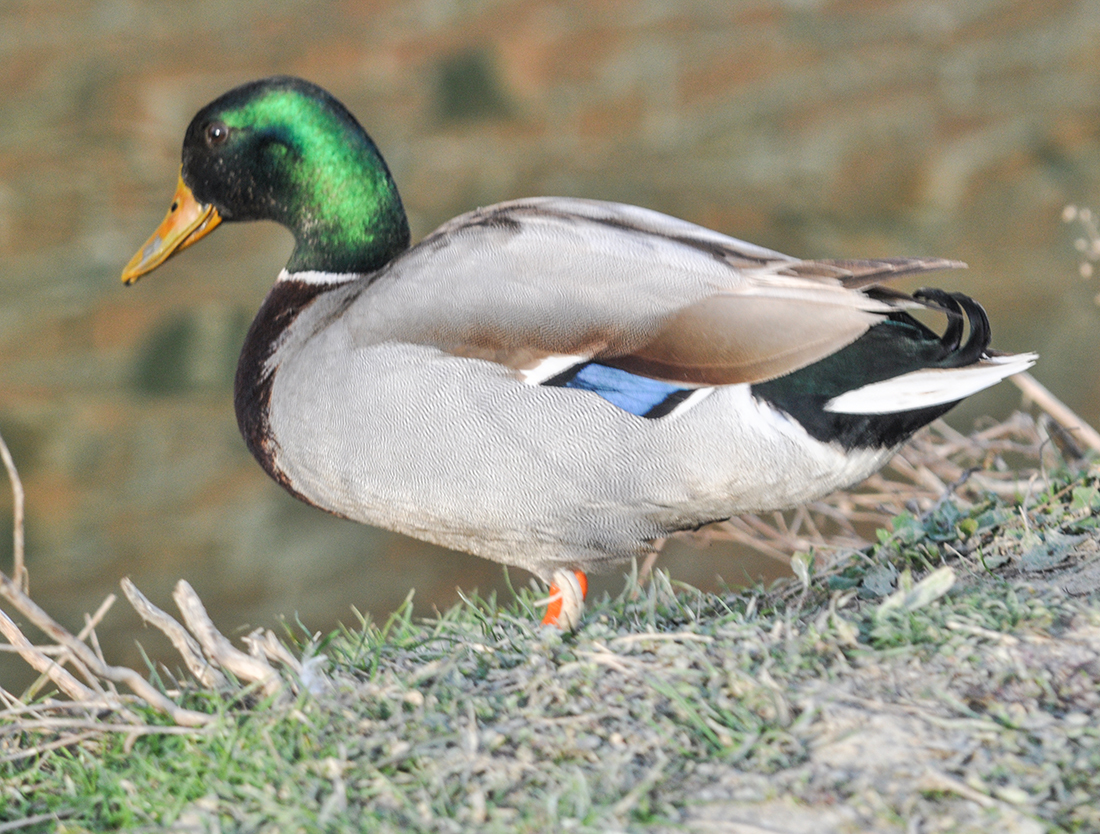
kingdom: Animalia
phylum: Chordata
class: Aves
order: Anseriformes
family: Anatidae
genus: Anas
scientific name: Anas platyrhynchos
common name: Mallard
